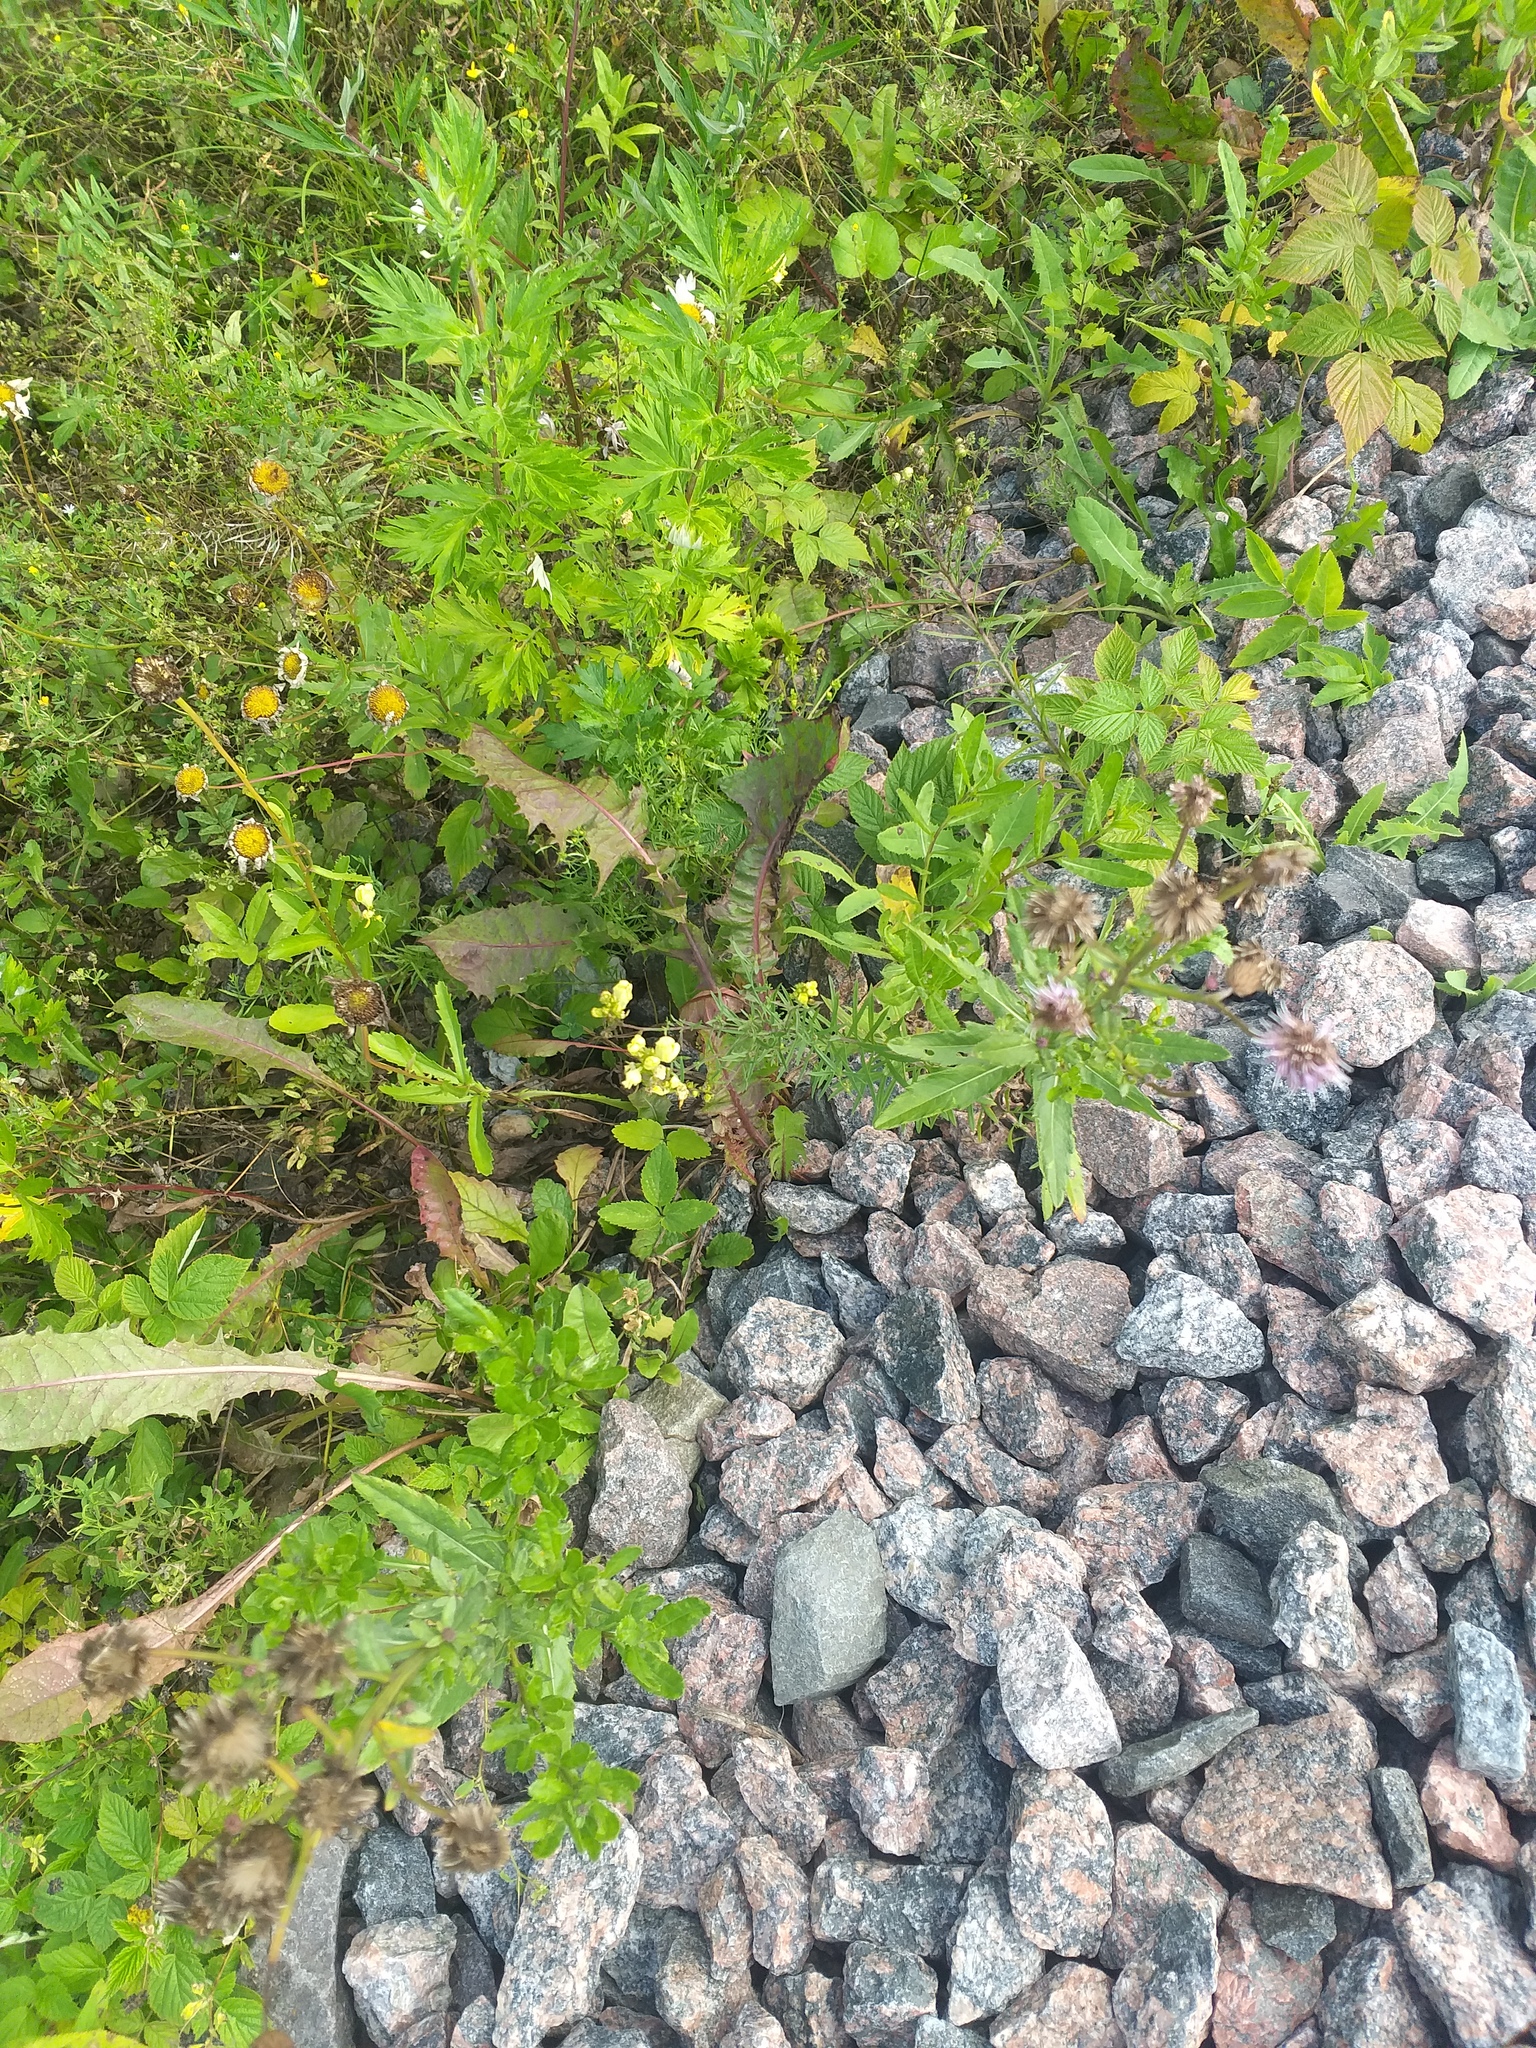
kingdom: Plantae
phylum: Tracheophyta
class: Magnoliopsida
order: Lamiales
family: Plantaginaceae
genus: Linaria
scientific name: Linaria vulgaris
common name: Butter and eggs
